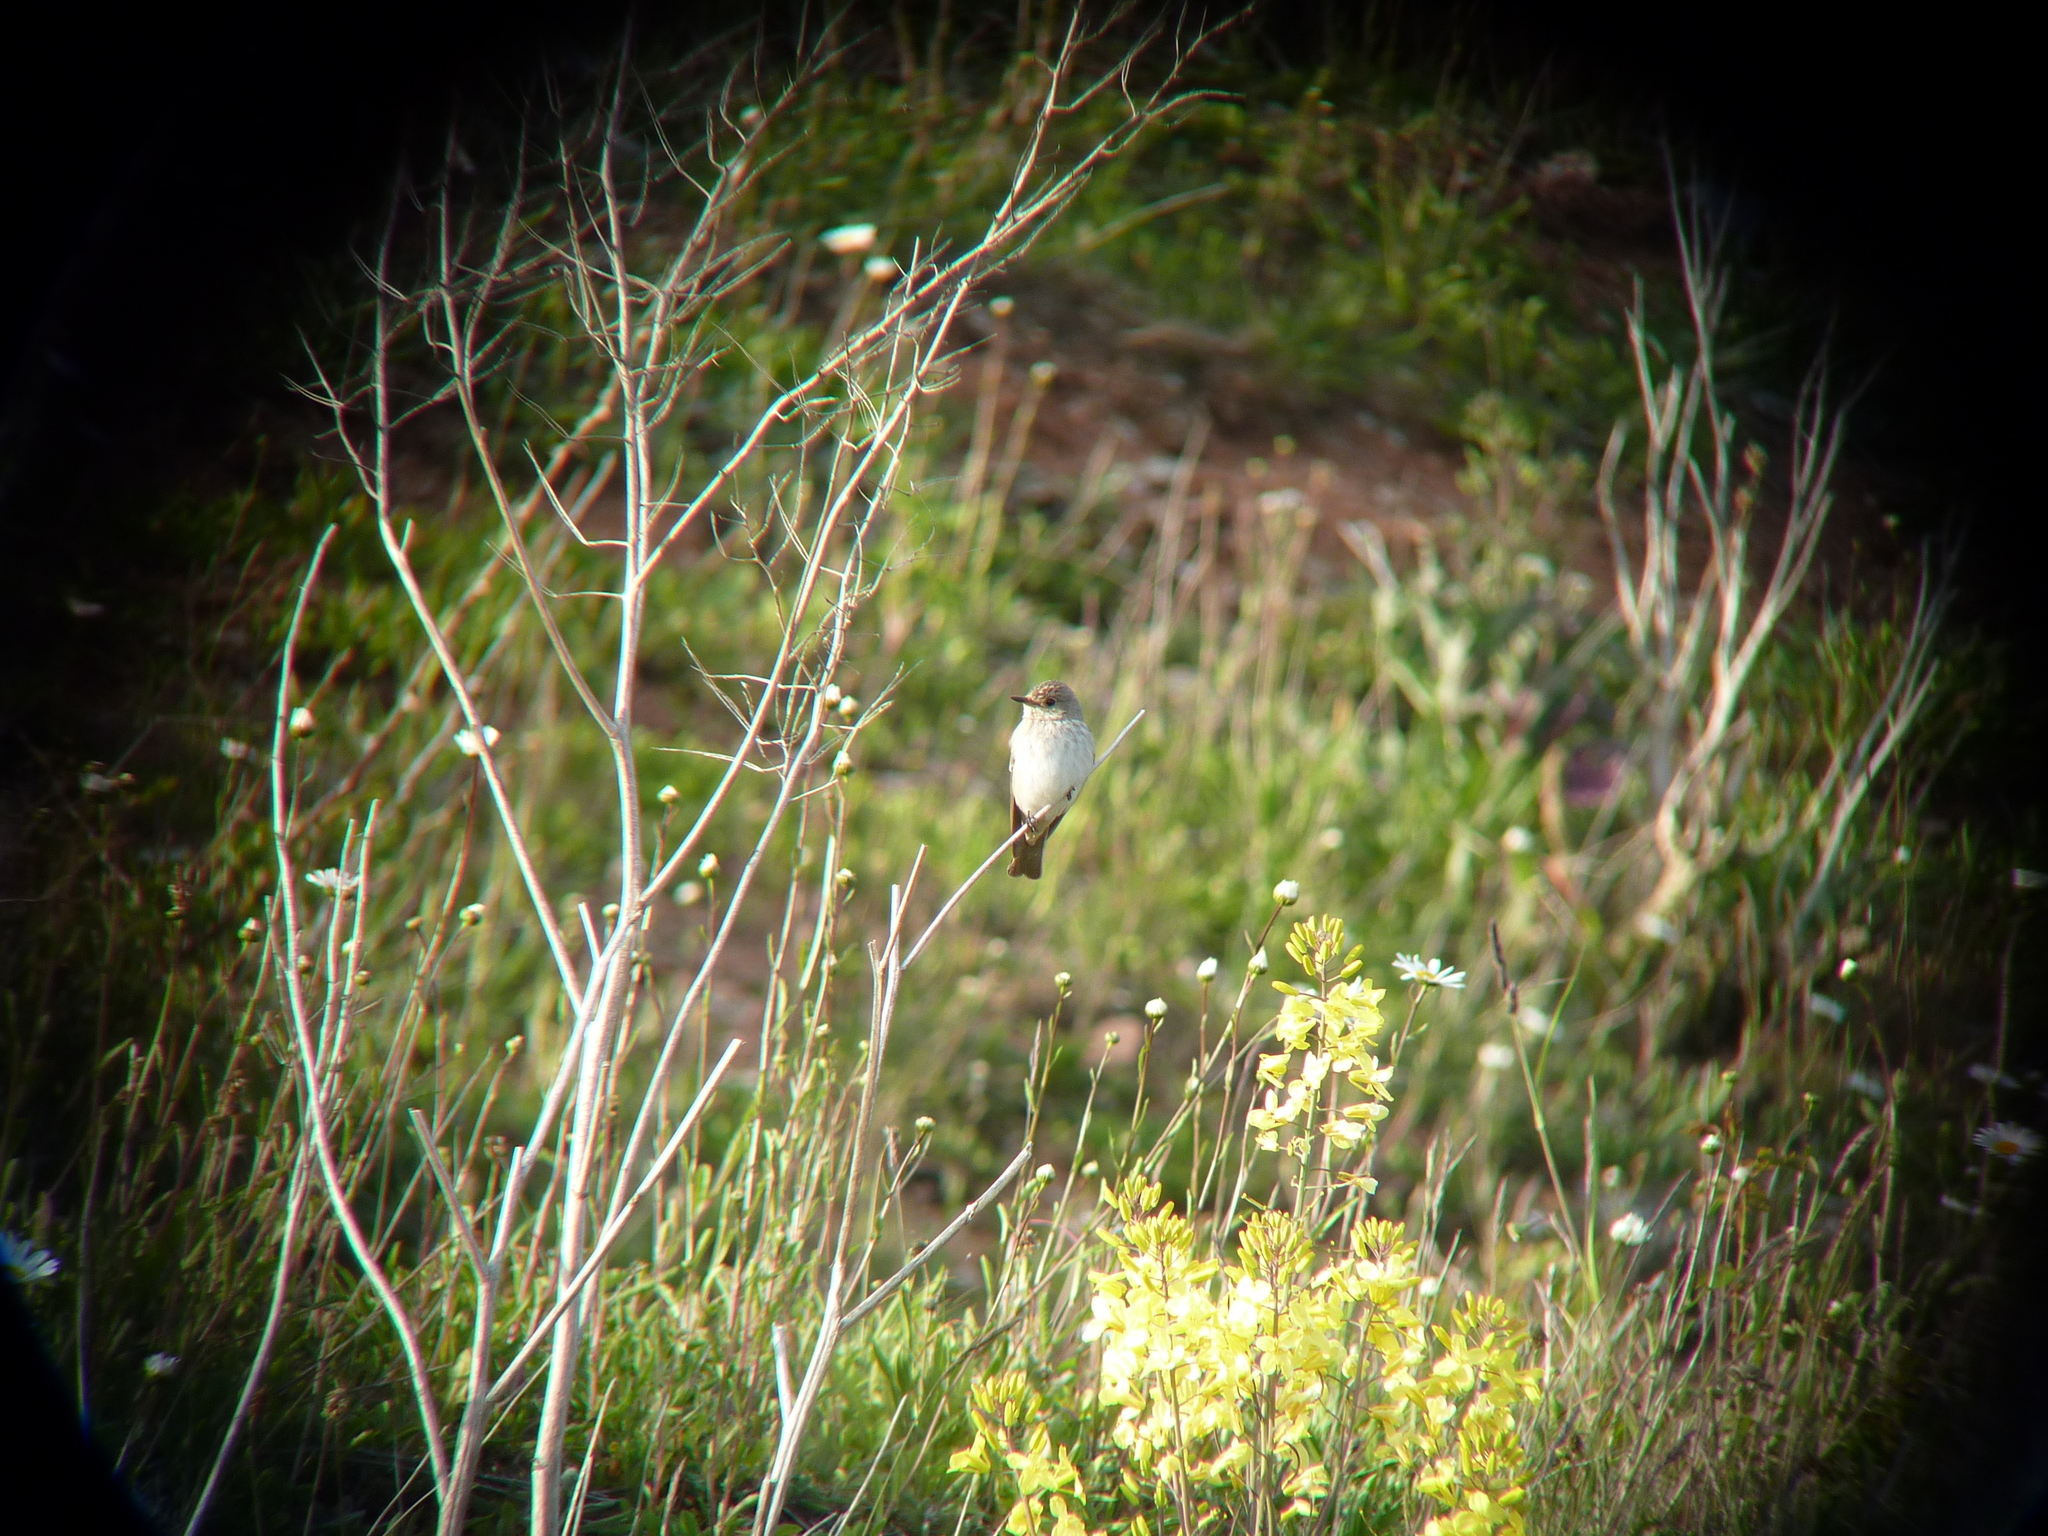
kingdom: Animalia
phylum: Chordata
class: Aves
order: Passeriformes
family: Muscicapidae
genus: Muscicapa
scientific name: Muscicapa striata
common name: Spotted flycatcher
